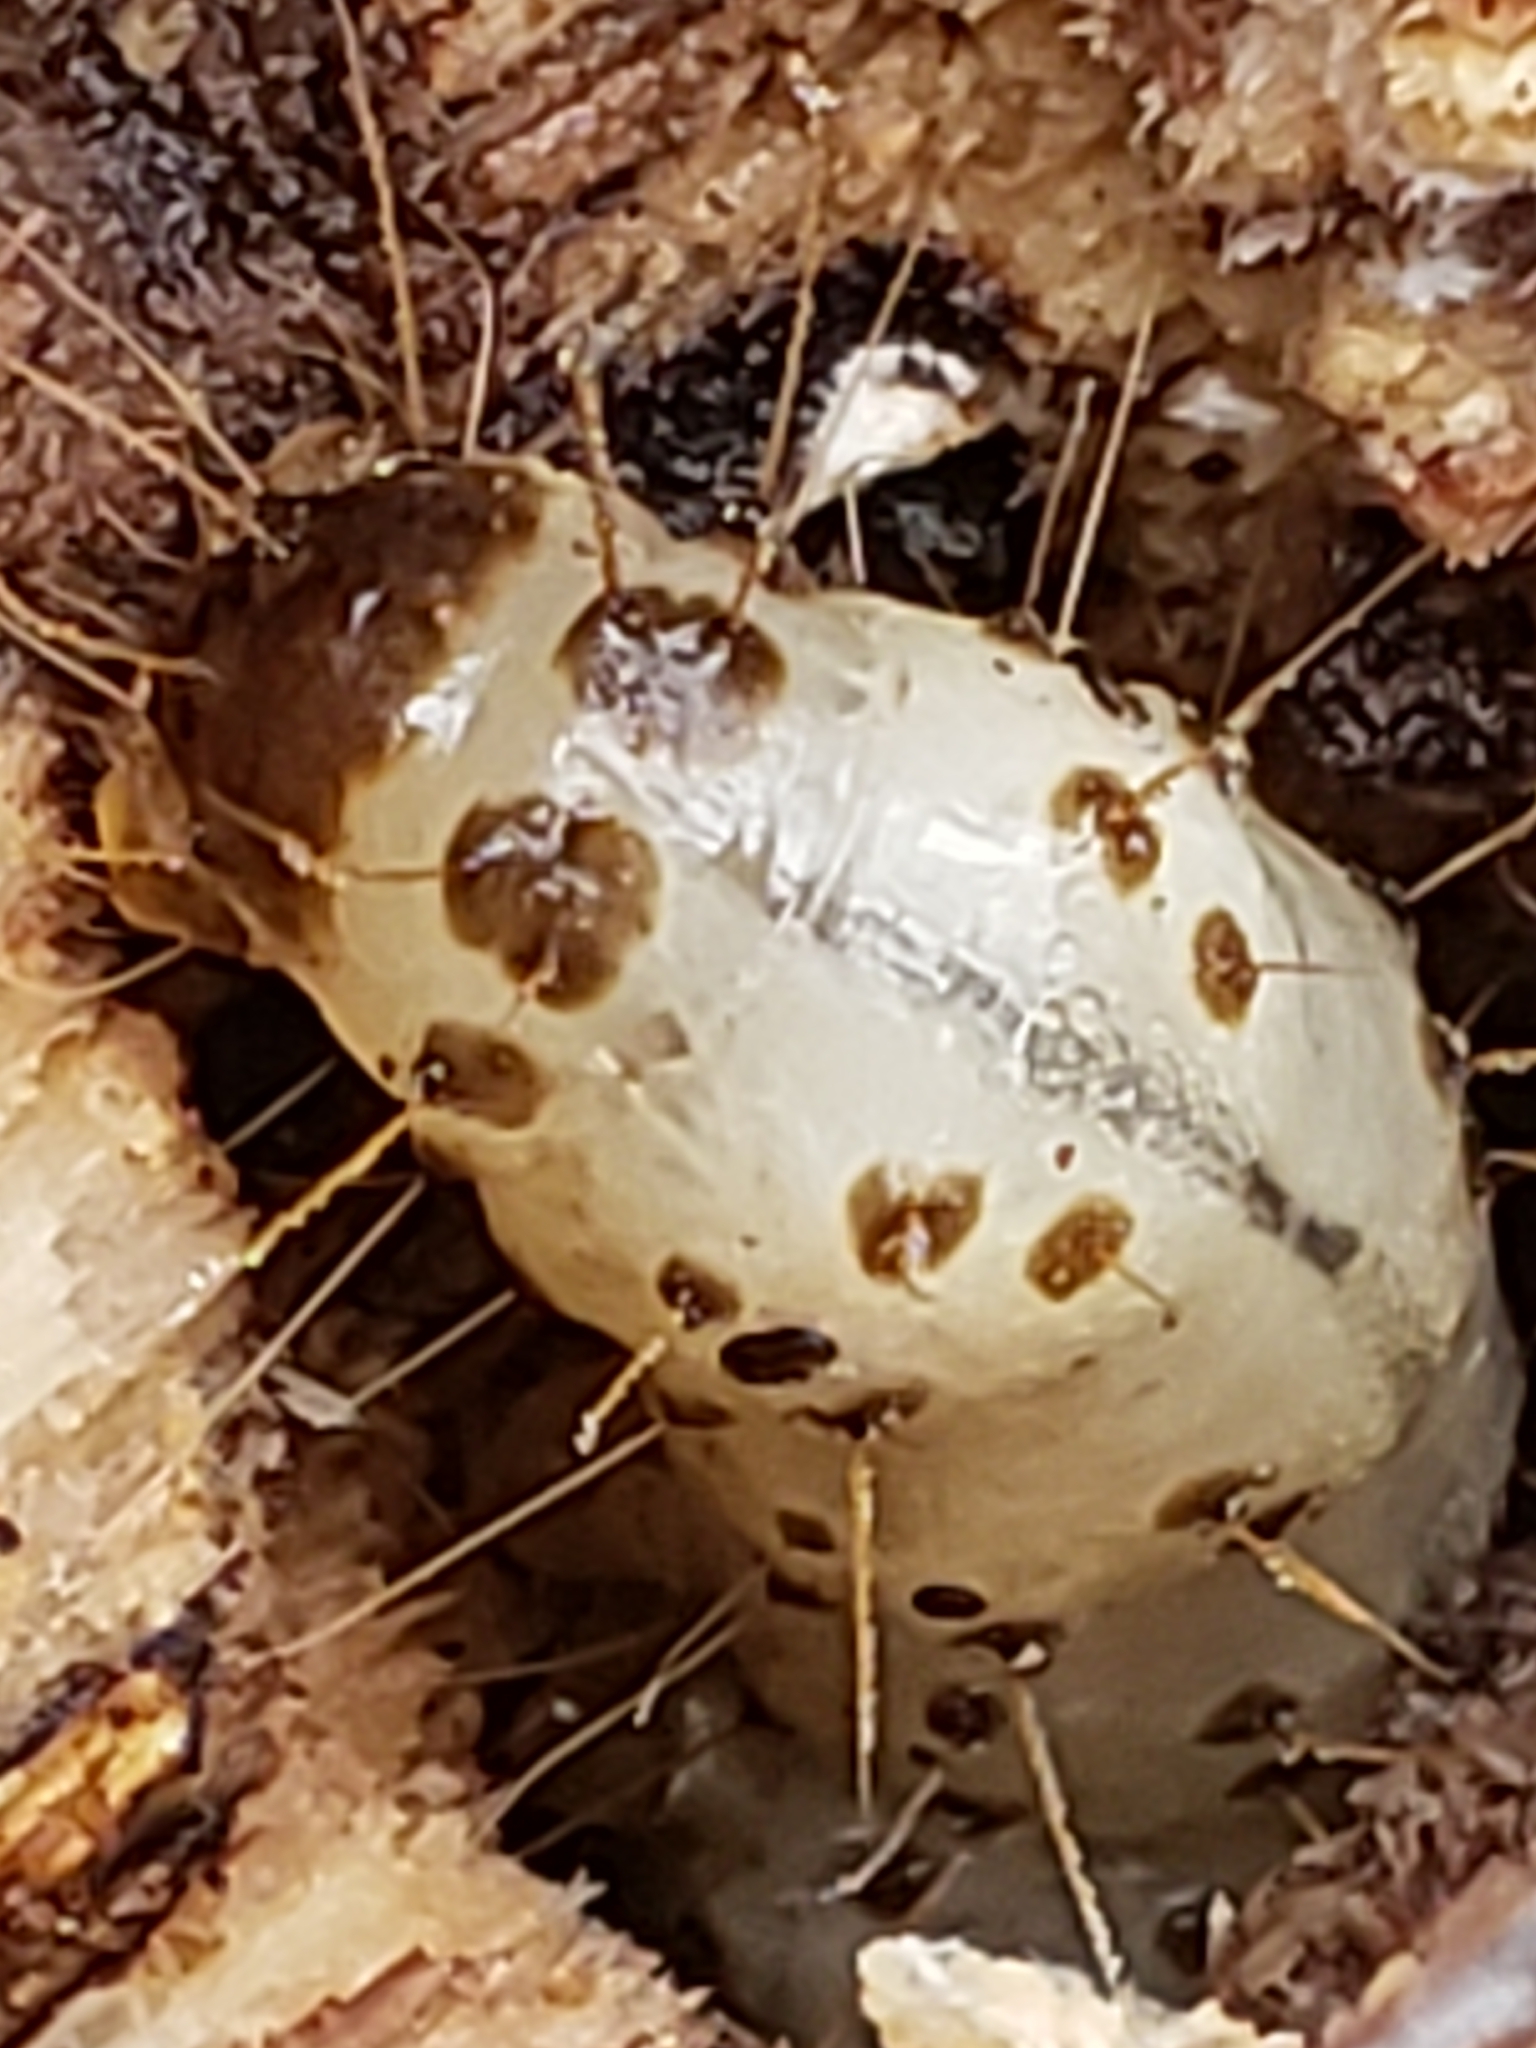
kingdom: Animalia
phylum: Arthropoda
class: Insecta
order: Lepidoptera
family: Erebidae
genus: Scolecocampa
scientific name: Scolecocampa liburna
